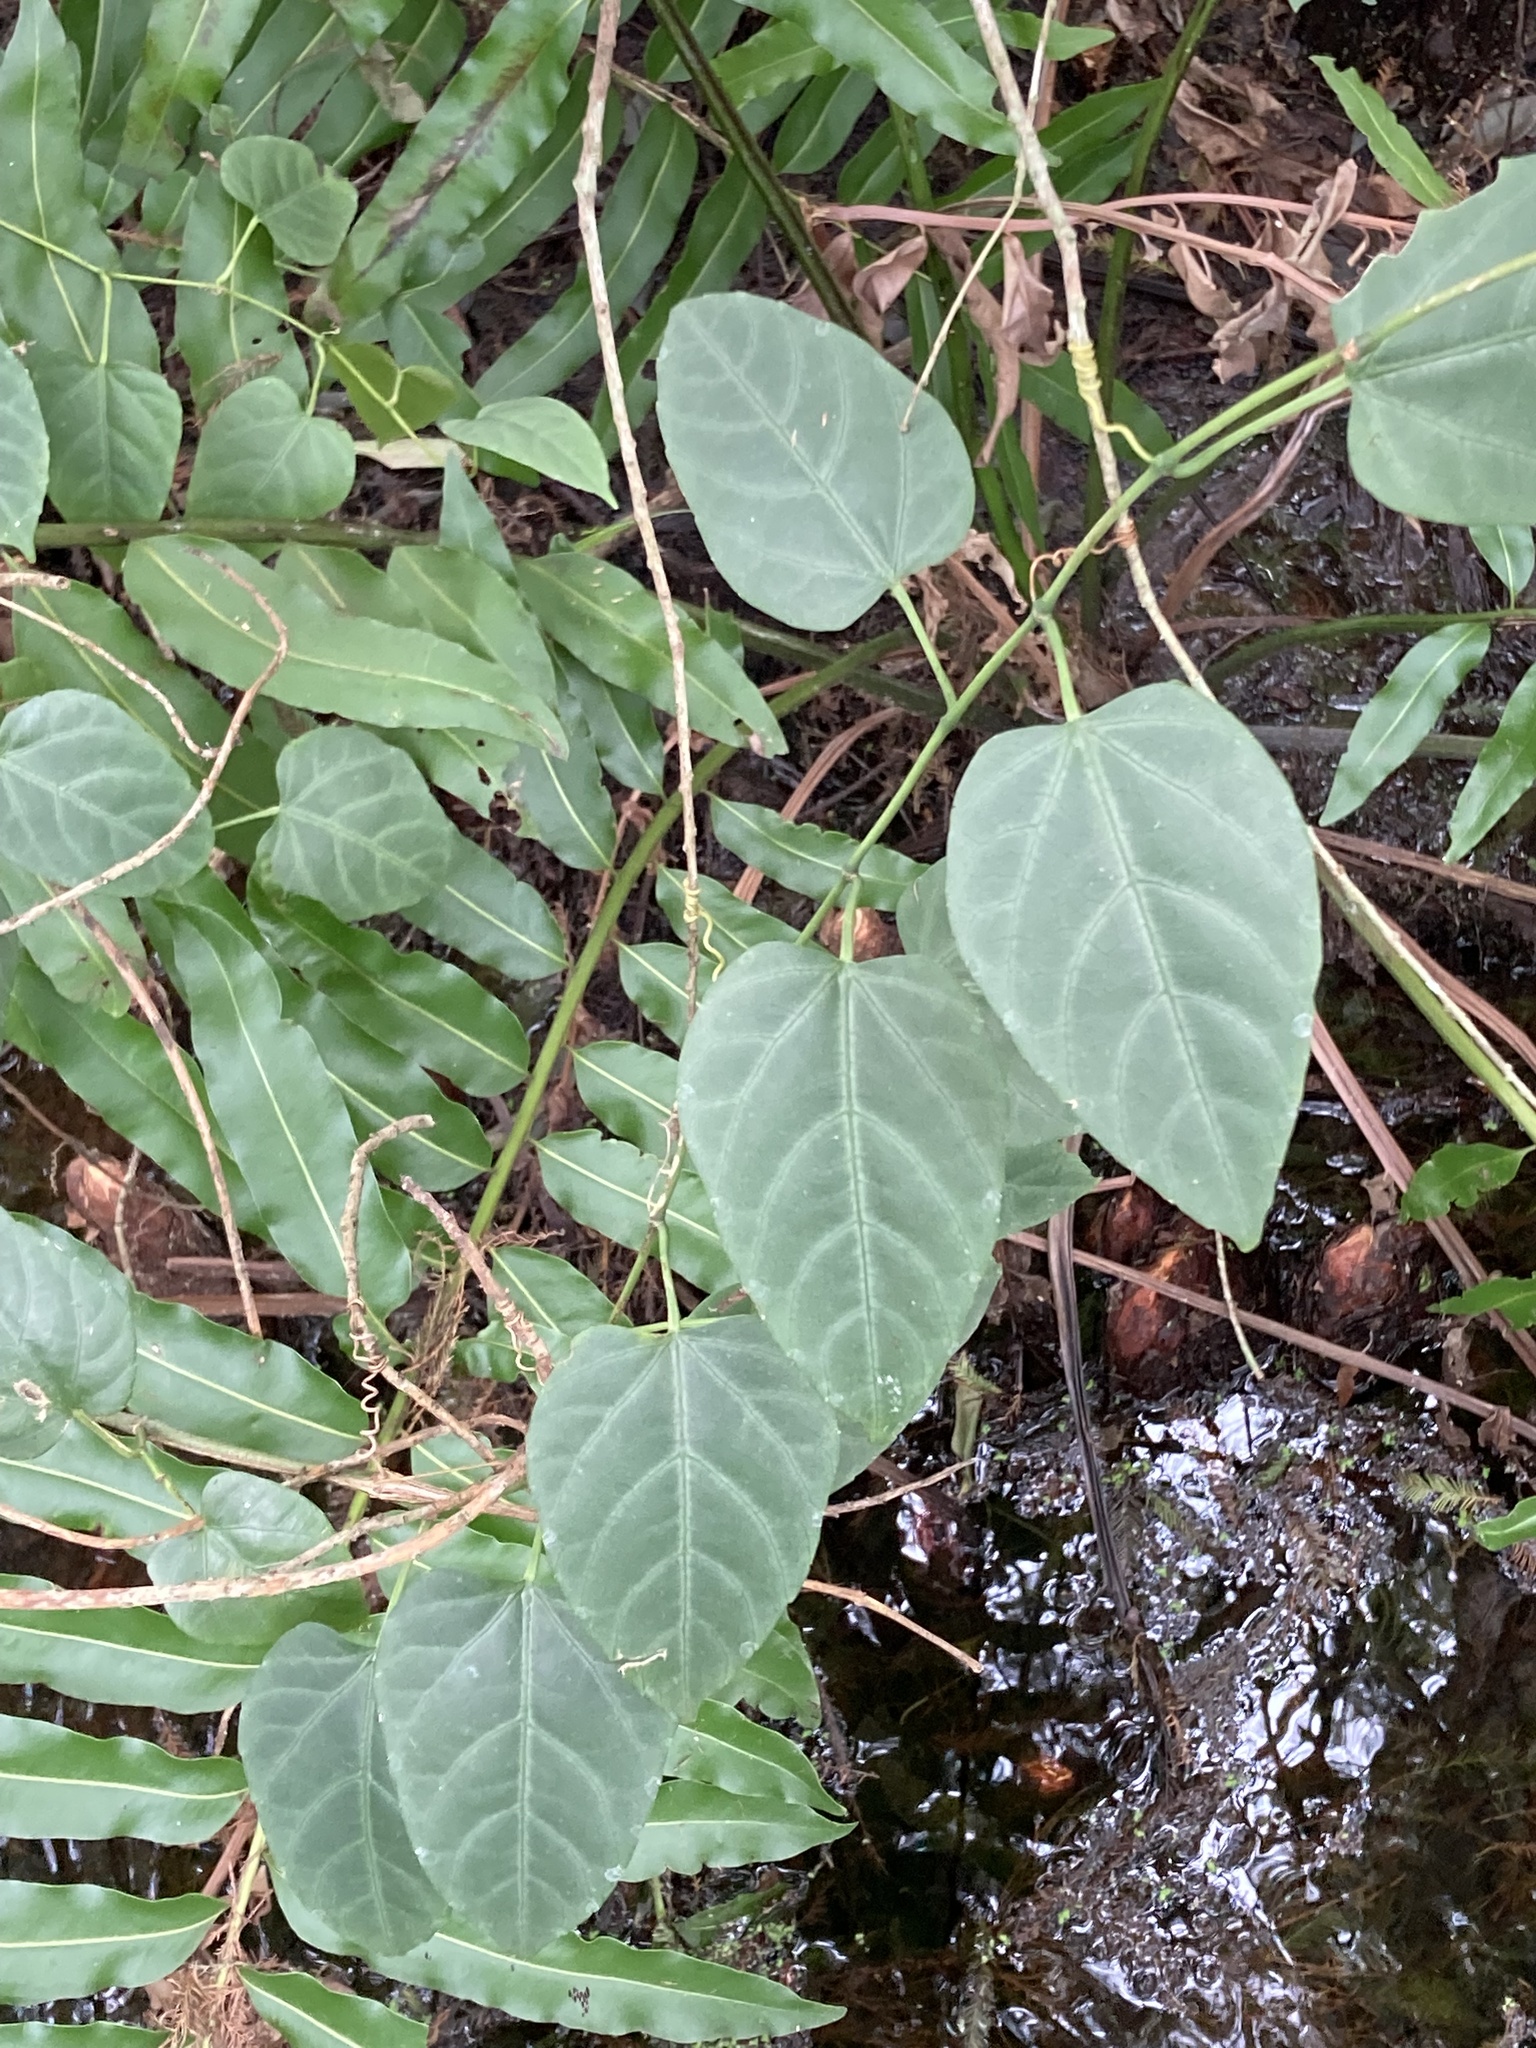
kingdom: Plantae
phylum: Tracheophyta
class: Magnoliopsida
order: Vitales
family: Vitaceae
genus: Cissus
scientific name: Cissus verticillata
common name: Princess vine
